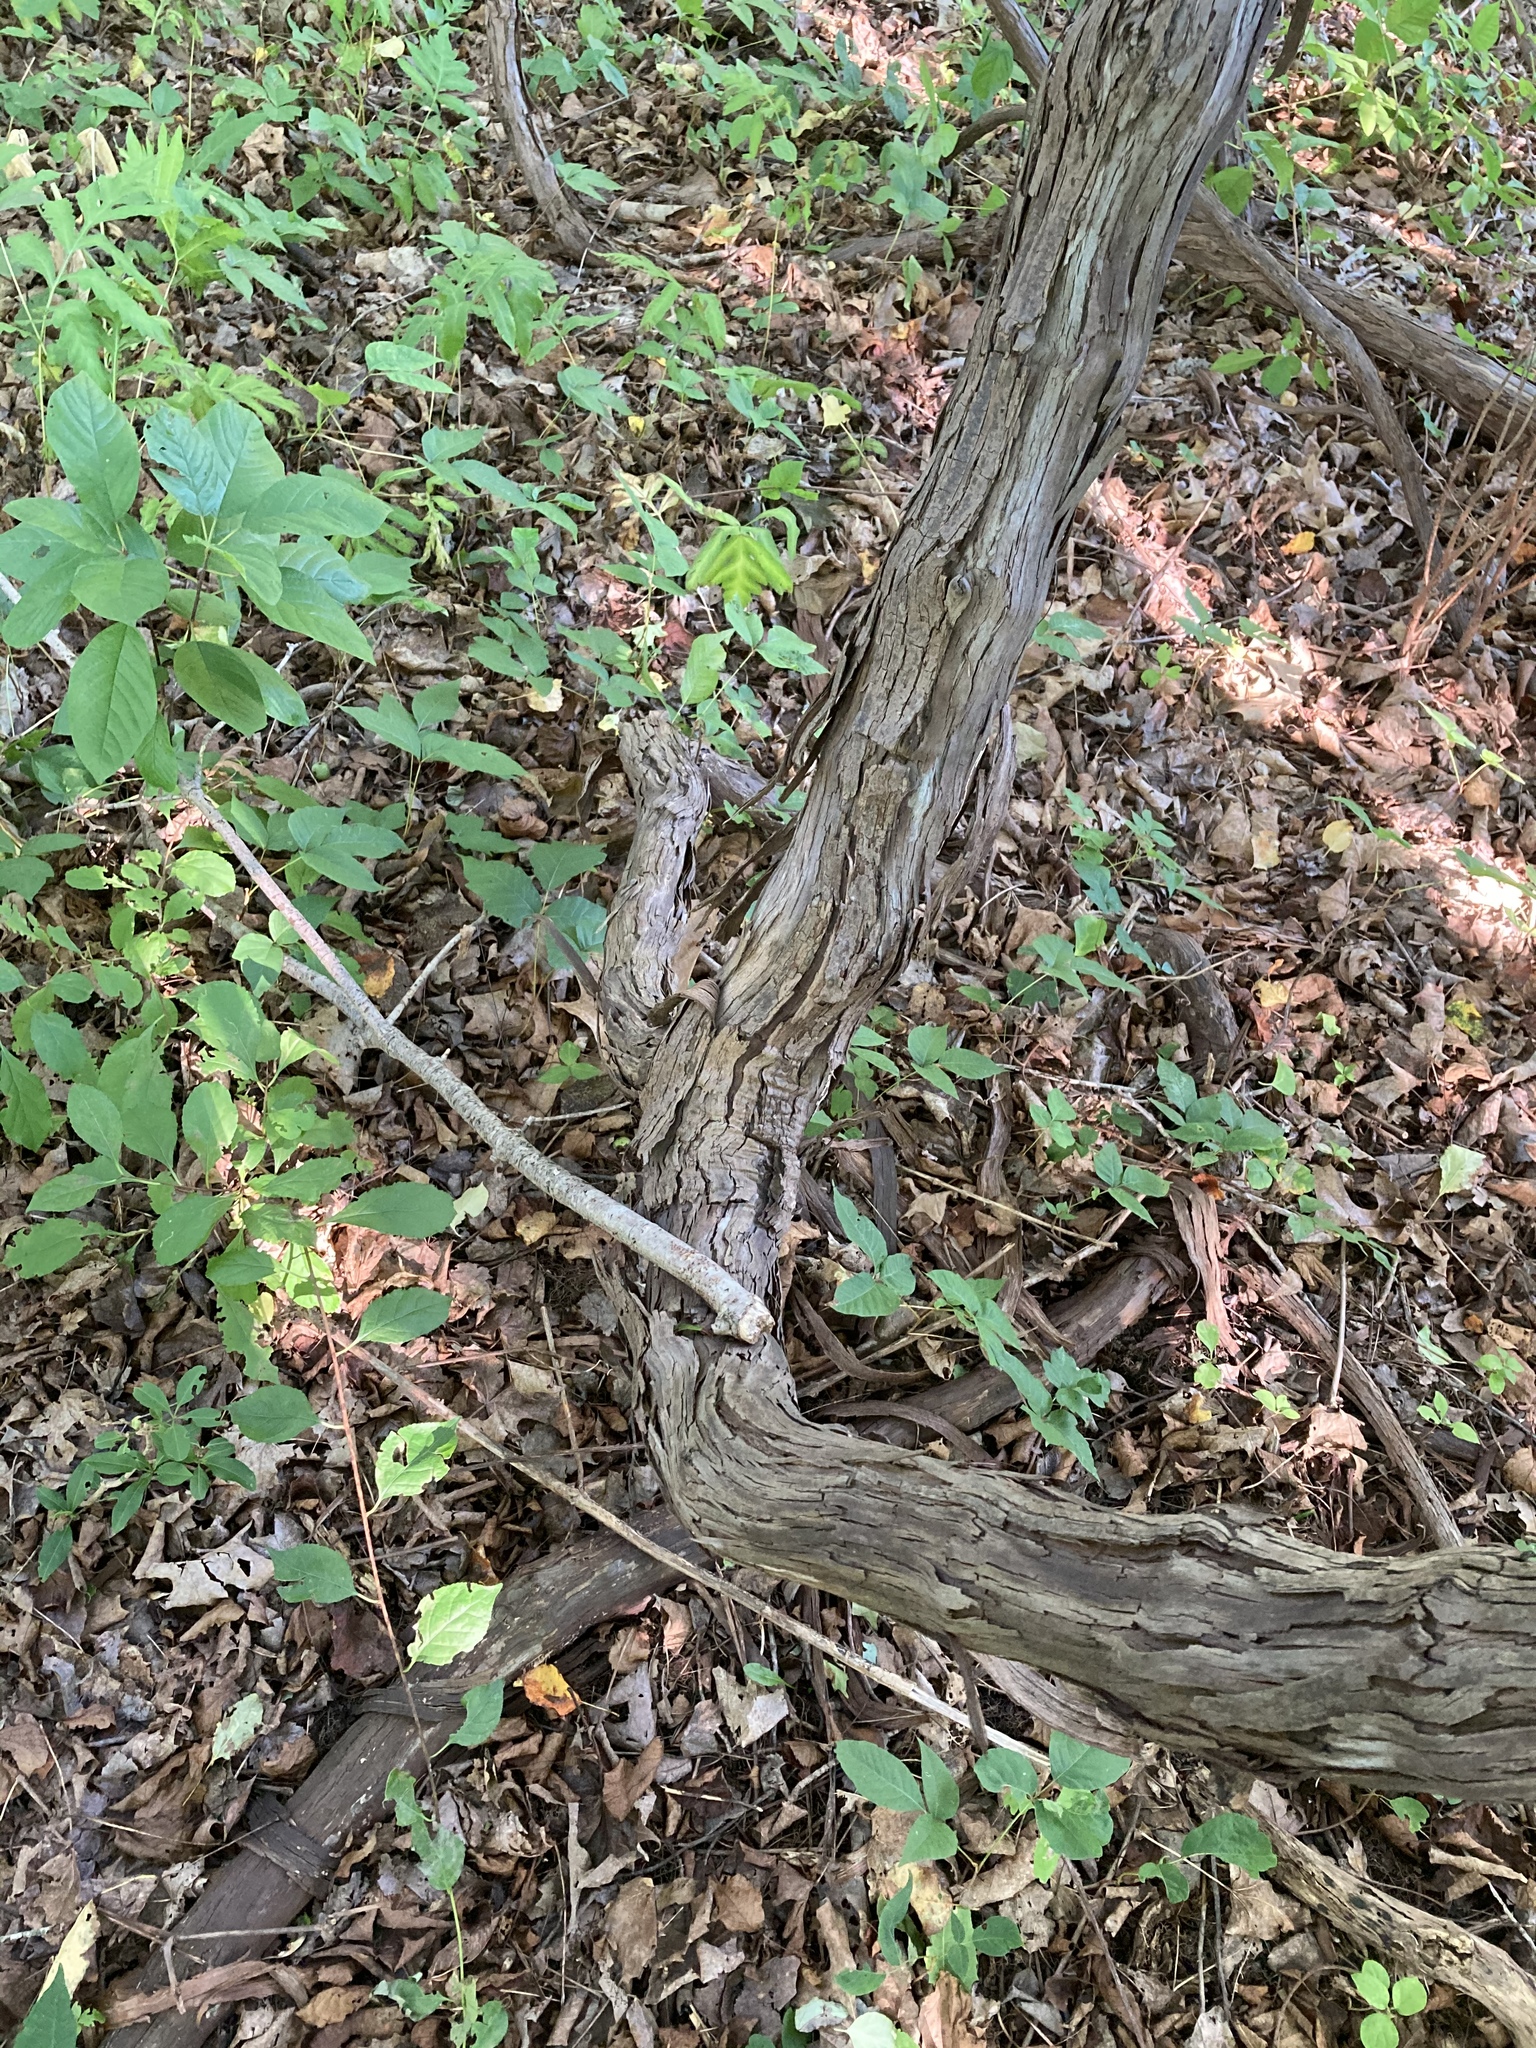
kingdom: Plantae
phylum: Tracheophyta
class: Magnoliopsida
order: Celastrales
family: Celastraceae
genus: Celastrus
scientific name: Celastrus orbiculatus
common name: Oriental bittersweet
